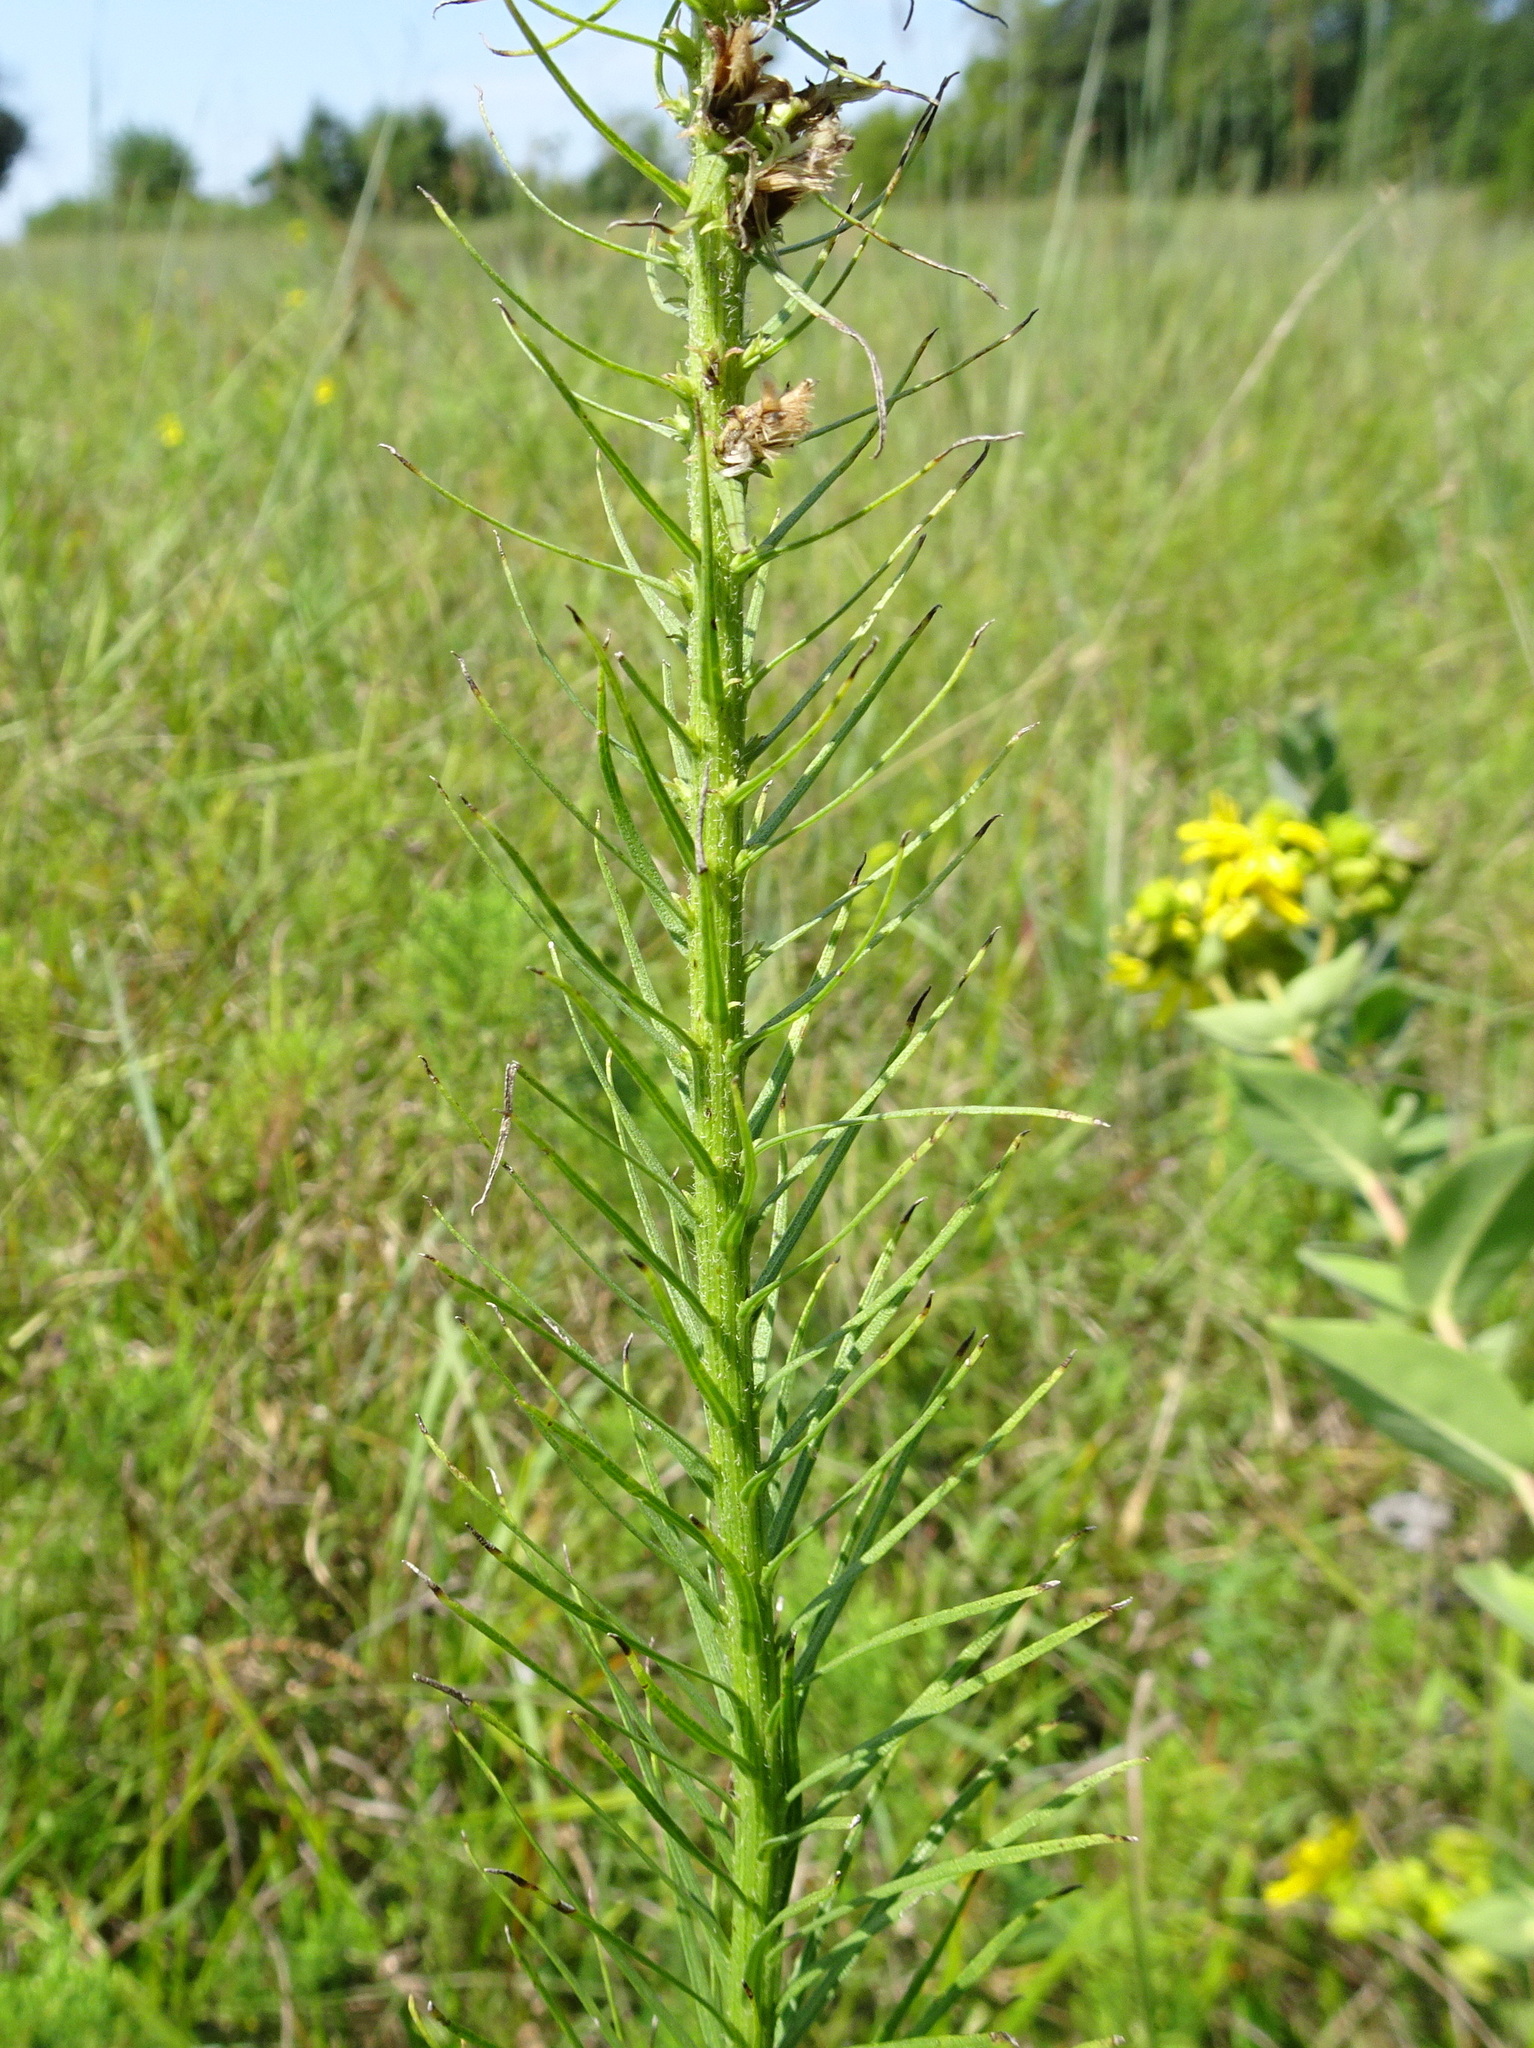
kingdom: Plantae
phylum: Tracheophyta
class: Magnoliopsida
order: Asterales
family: Asteraceae
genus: Liatris
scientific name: Liatris pycnostachya
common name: Cattail gayfeather
